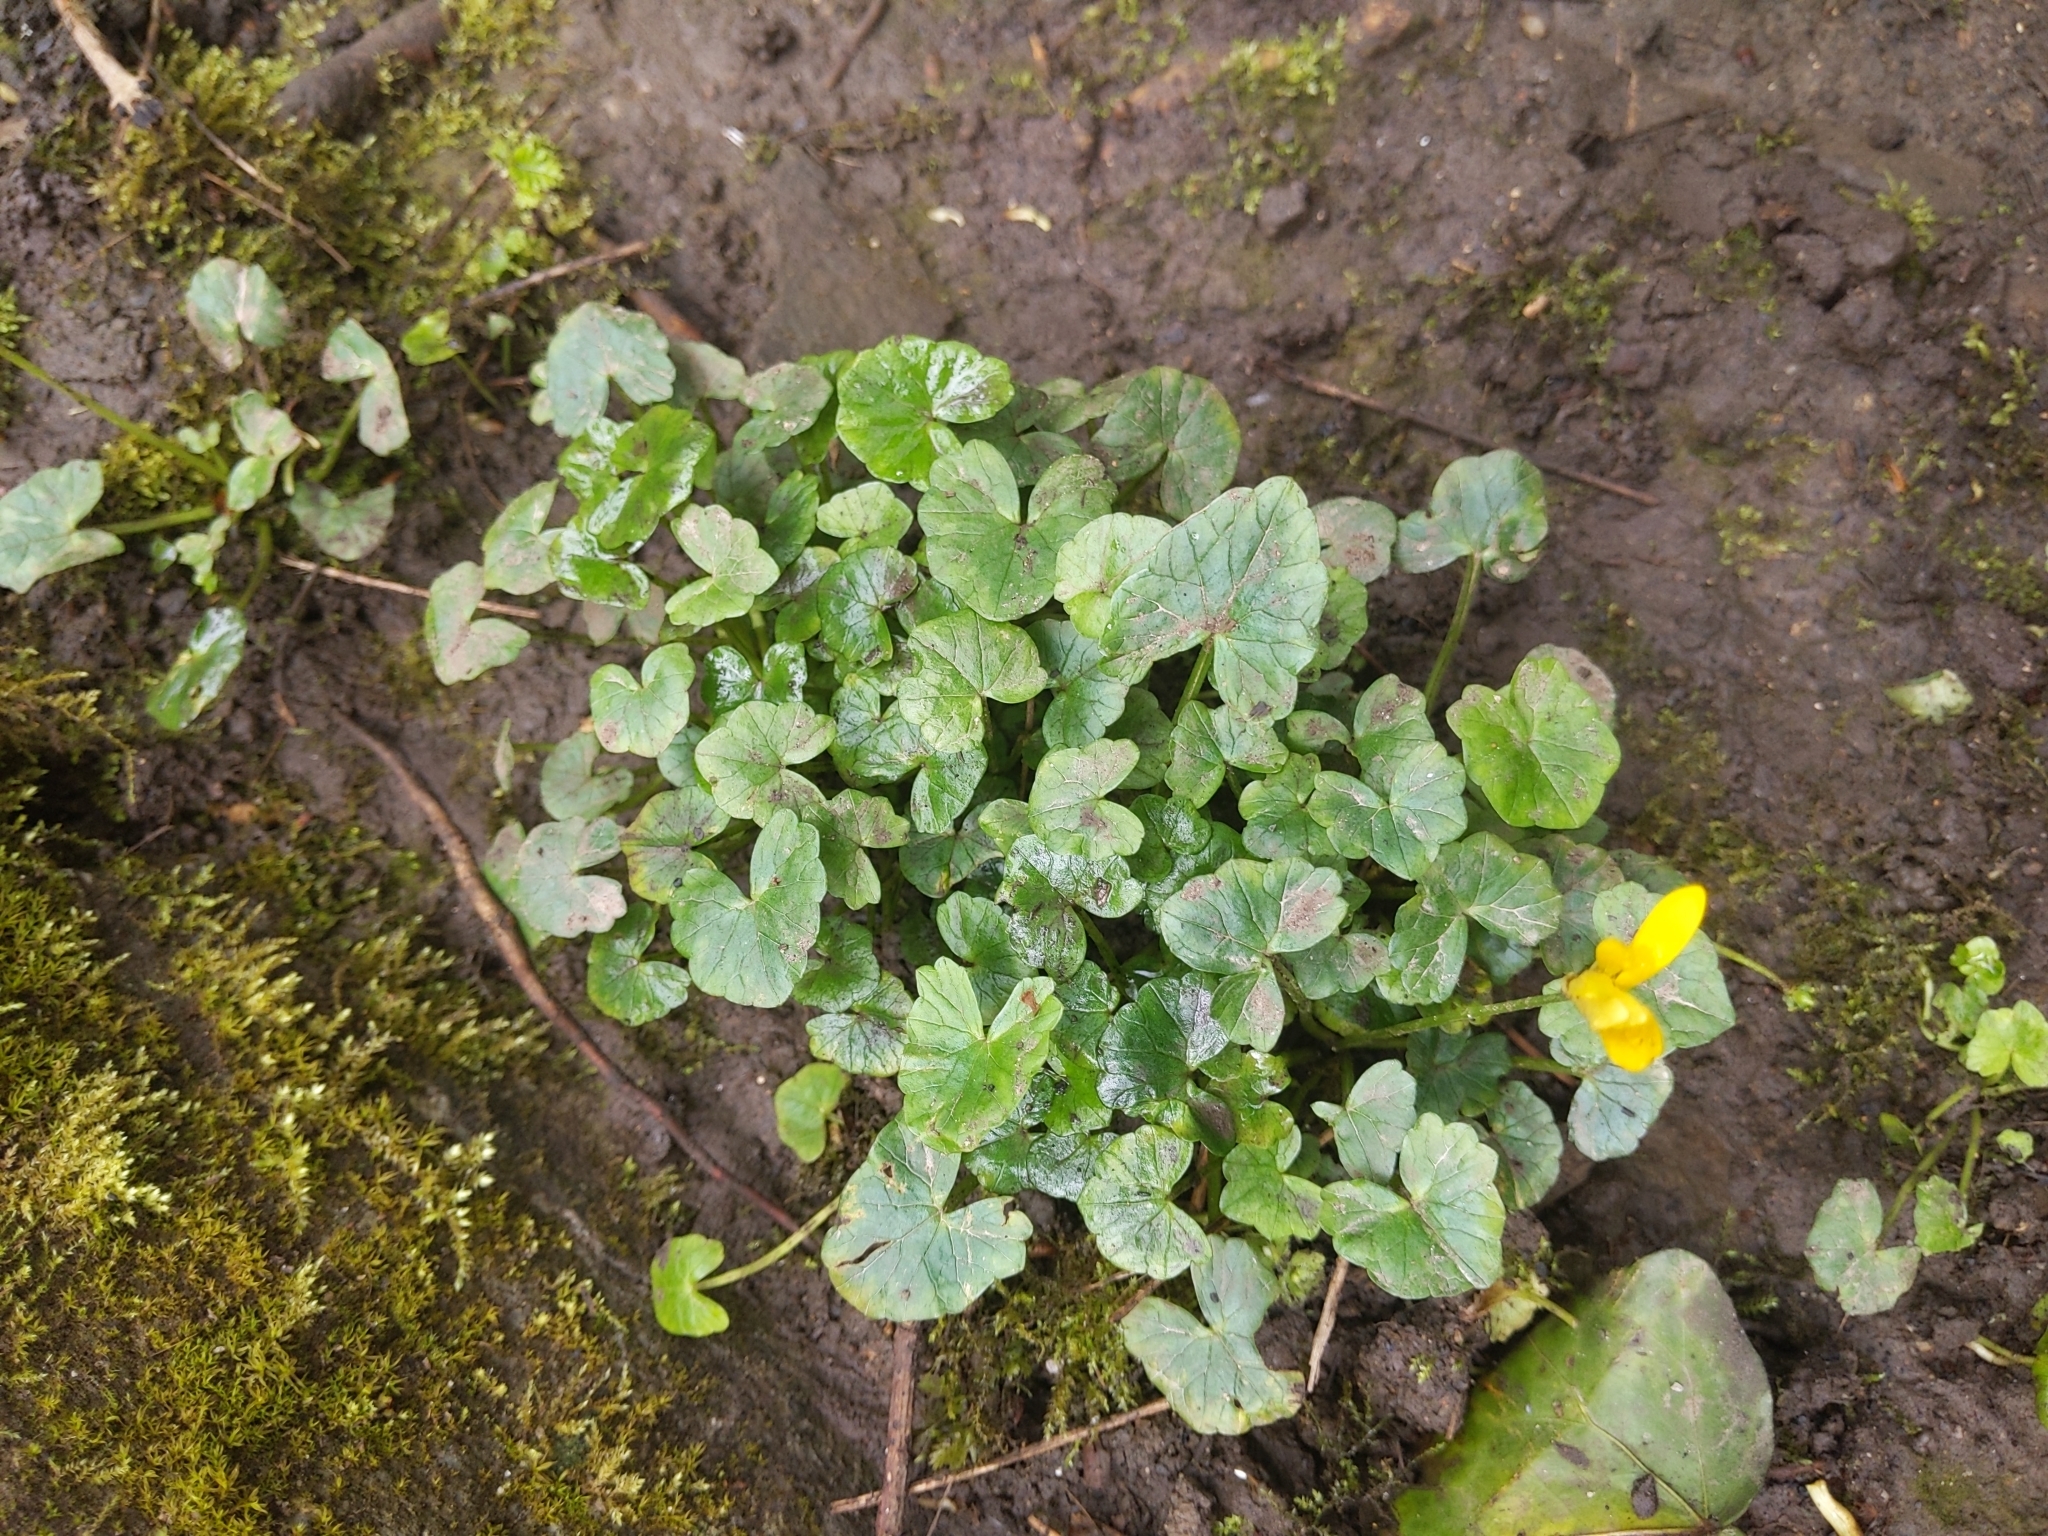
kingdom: Plantae
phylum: Tracheophyta
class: Magnoliopsida
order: Ranunculales
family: Ranunculaceae
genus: Ficaria
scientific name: Ficaria verna
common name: Lesser celandine
